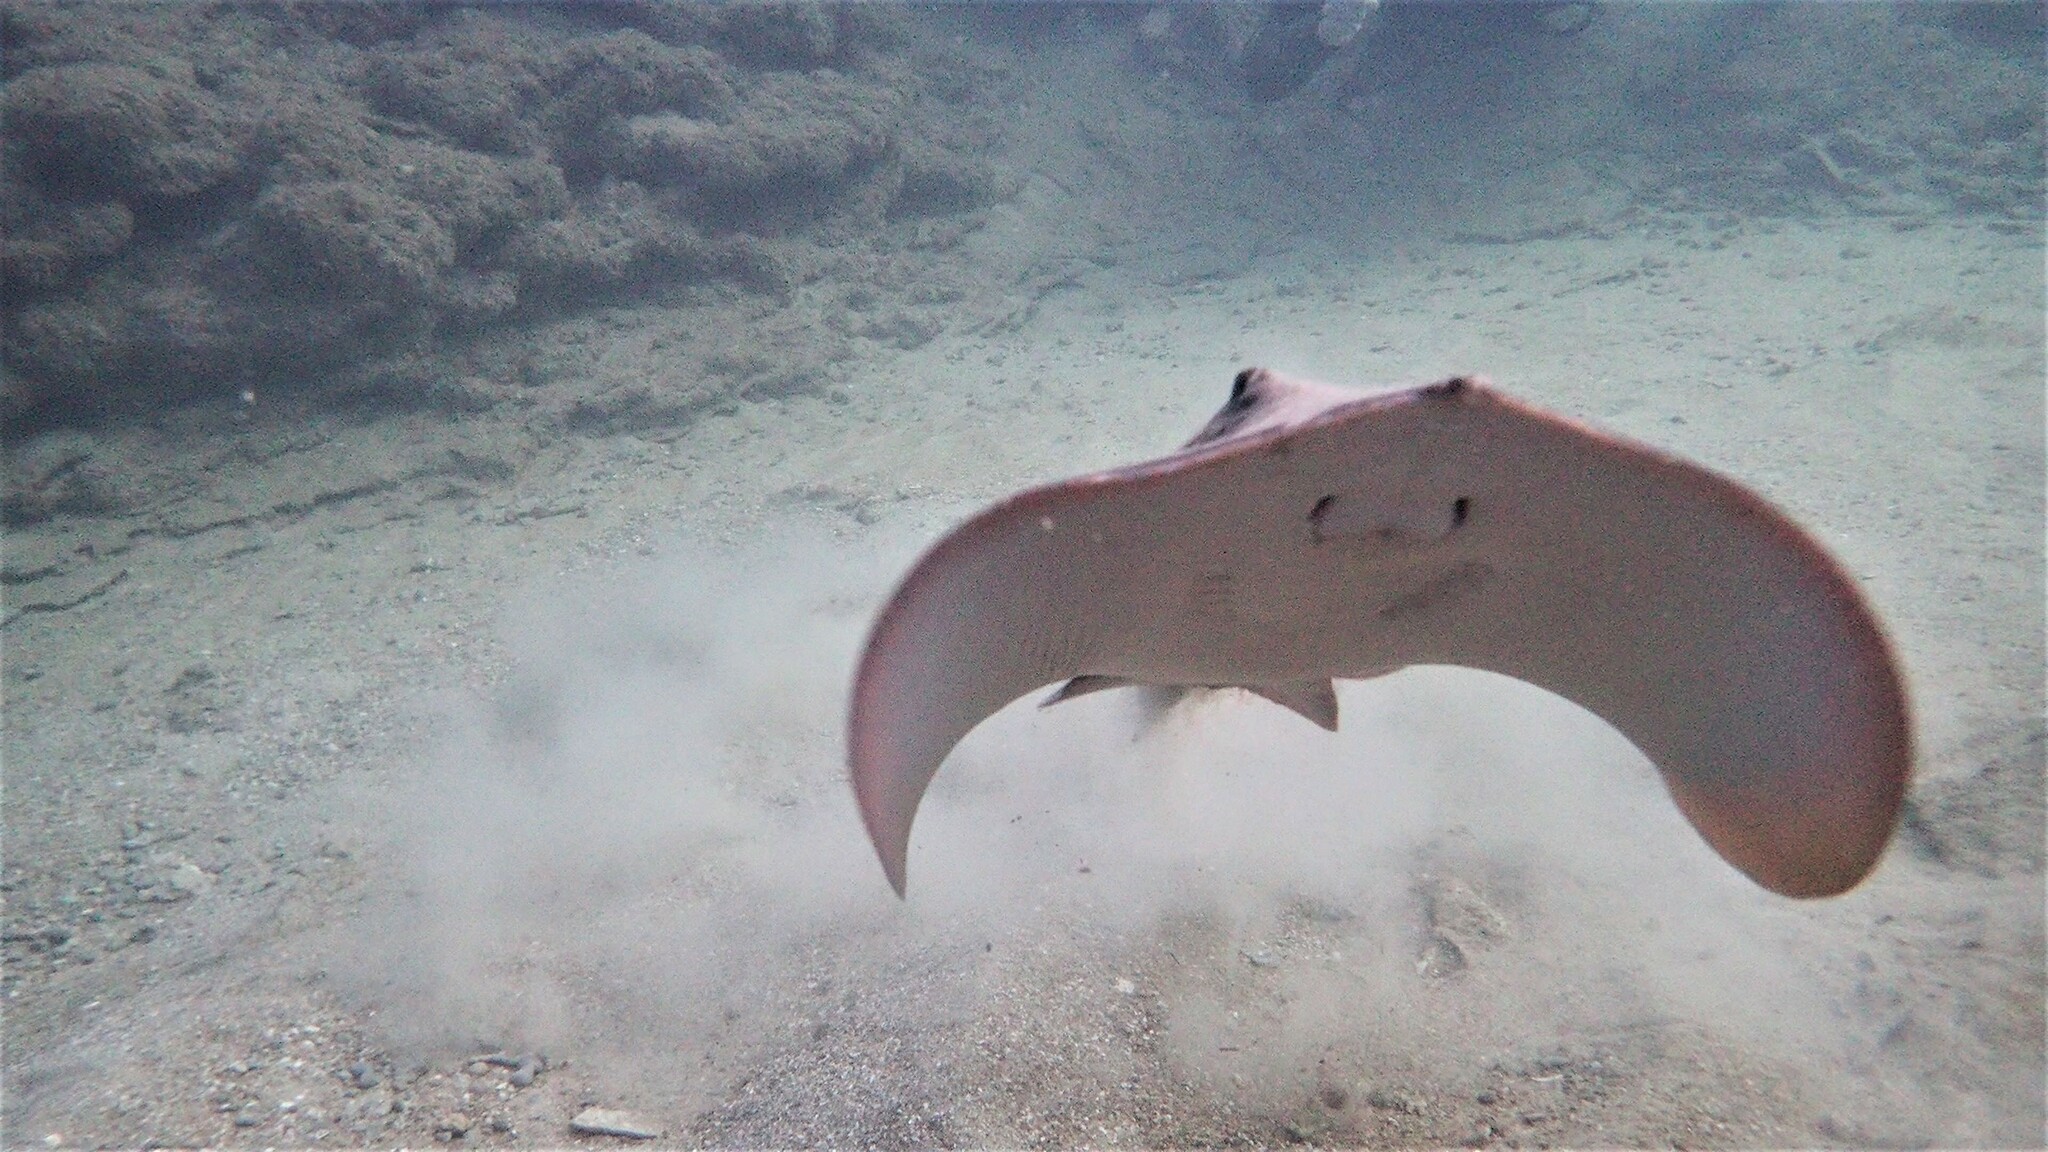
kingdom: Animalia
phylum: Chordata
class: Elasmobranchii
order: Myliobatiformes
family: Dasyatidae
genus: Dasyatis
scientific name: Dasyatis pastinaca
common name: Common stingray
